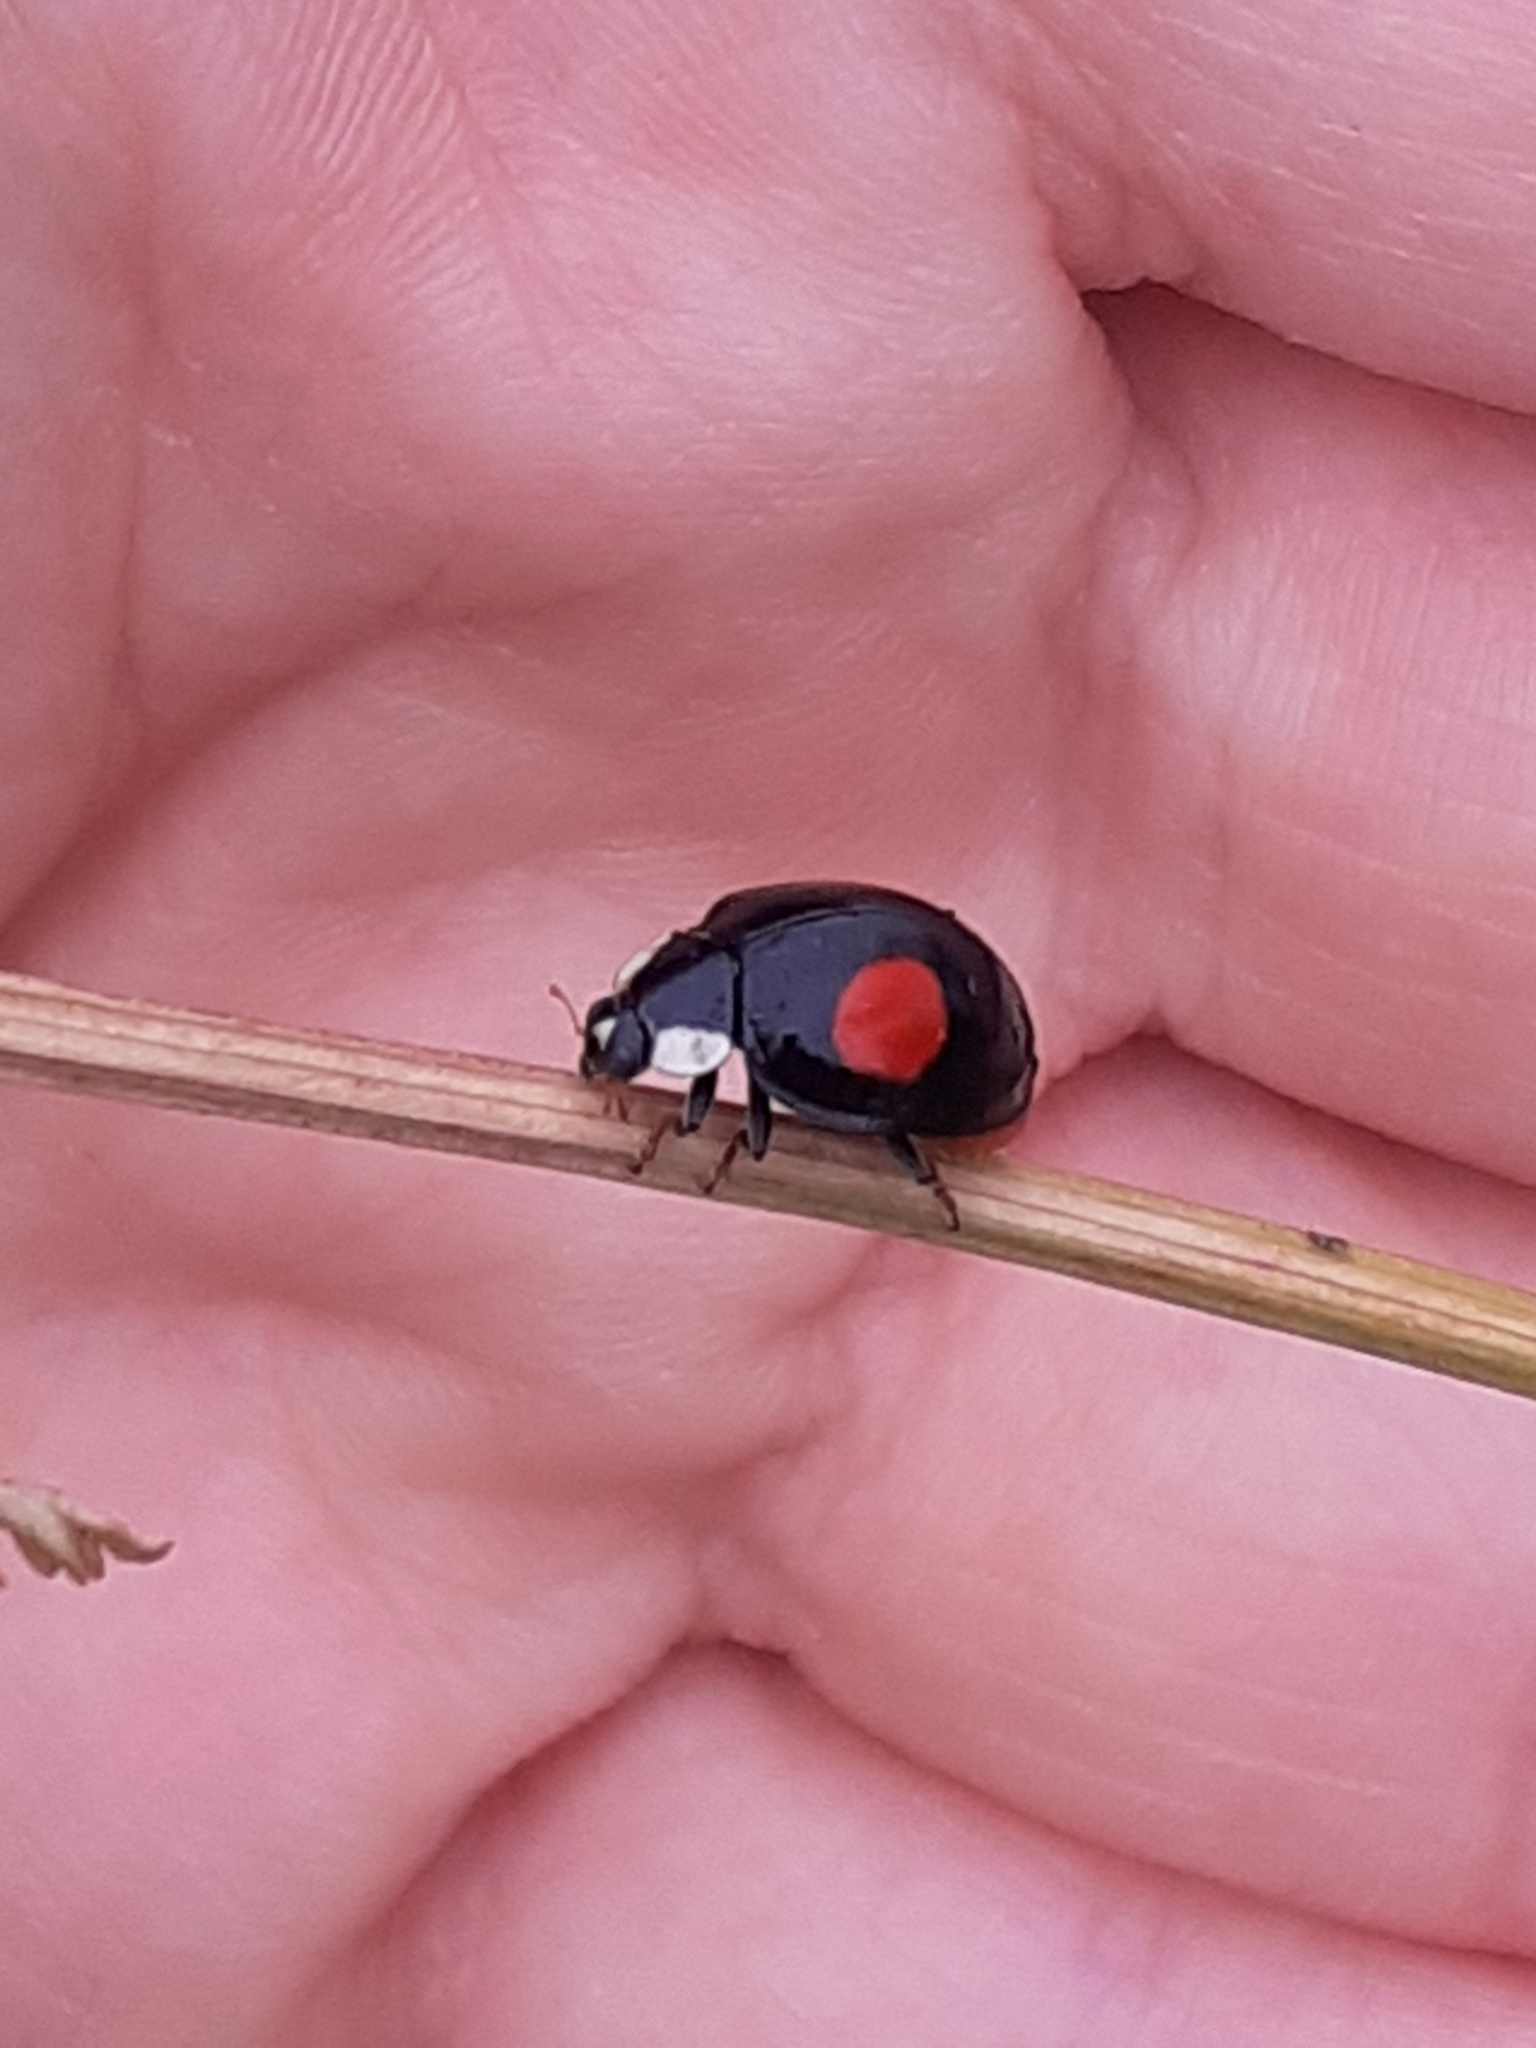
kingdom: Animalia
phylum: Arthropoda
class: Insecta
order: Coleoptera
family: Coccinellidae
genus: Harmonia
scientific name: Harmonia axyridis
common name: Harlequin ladybird
